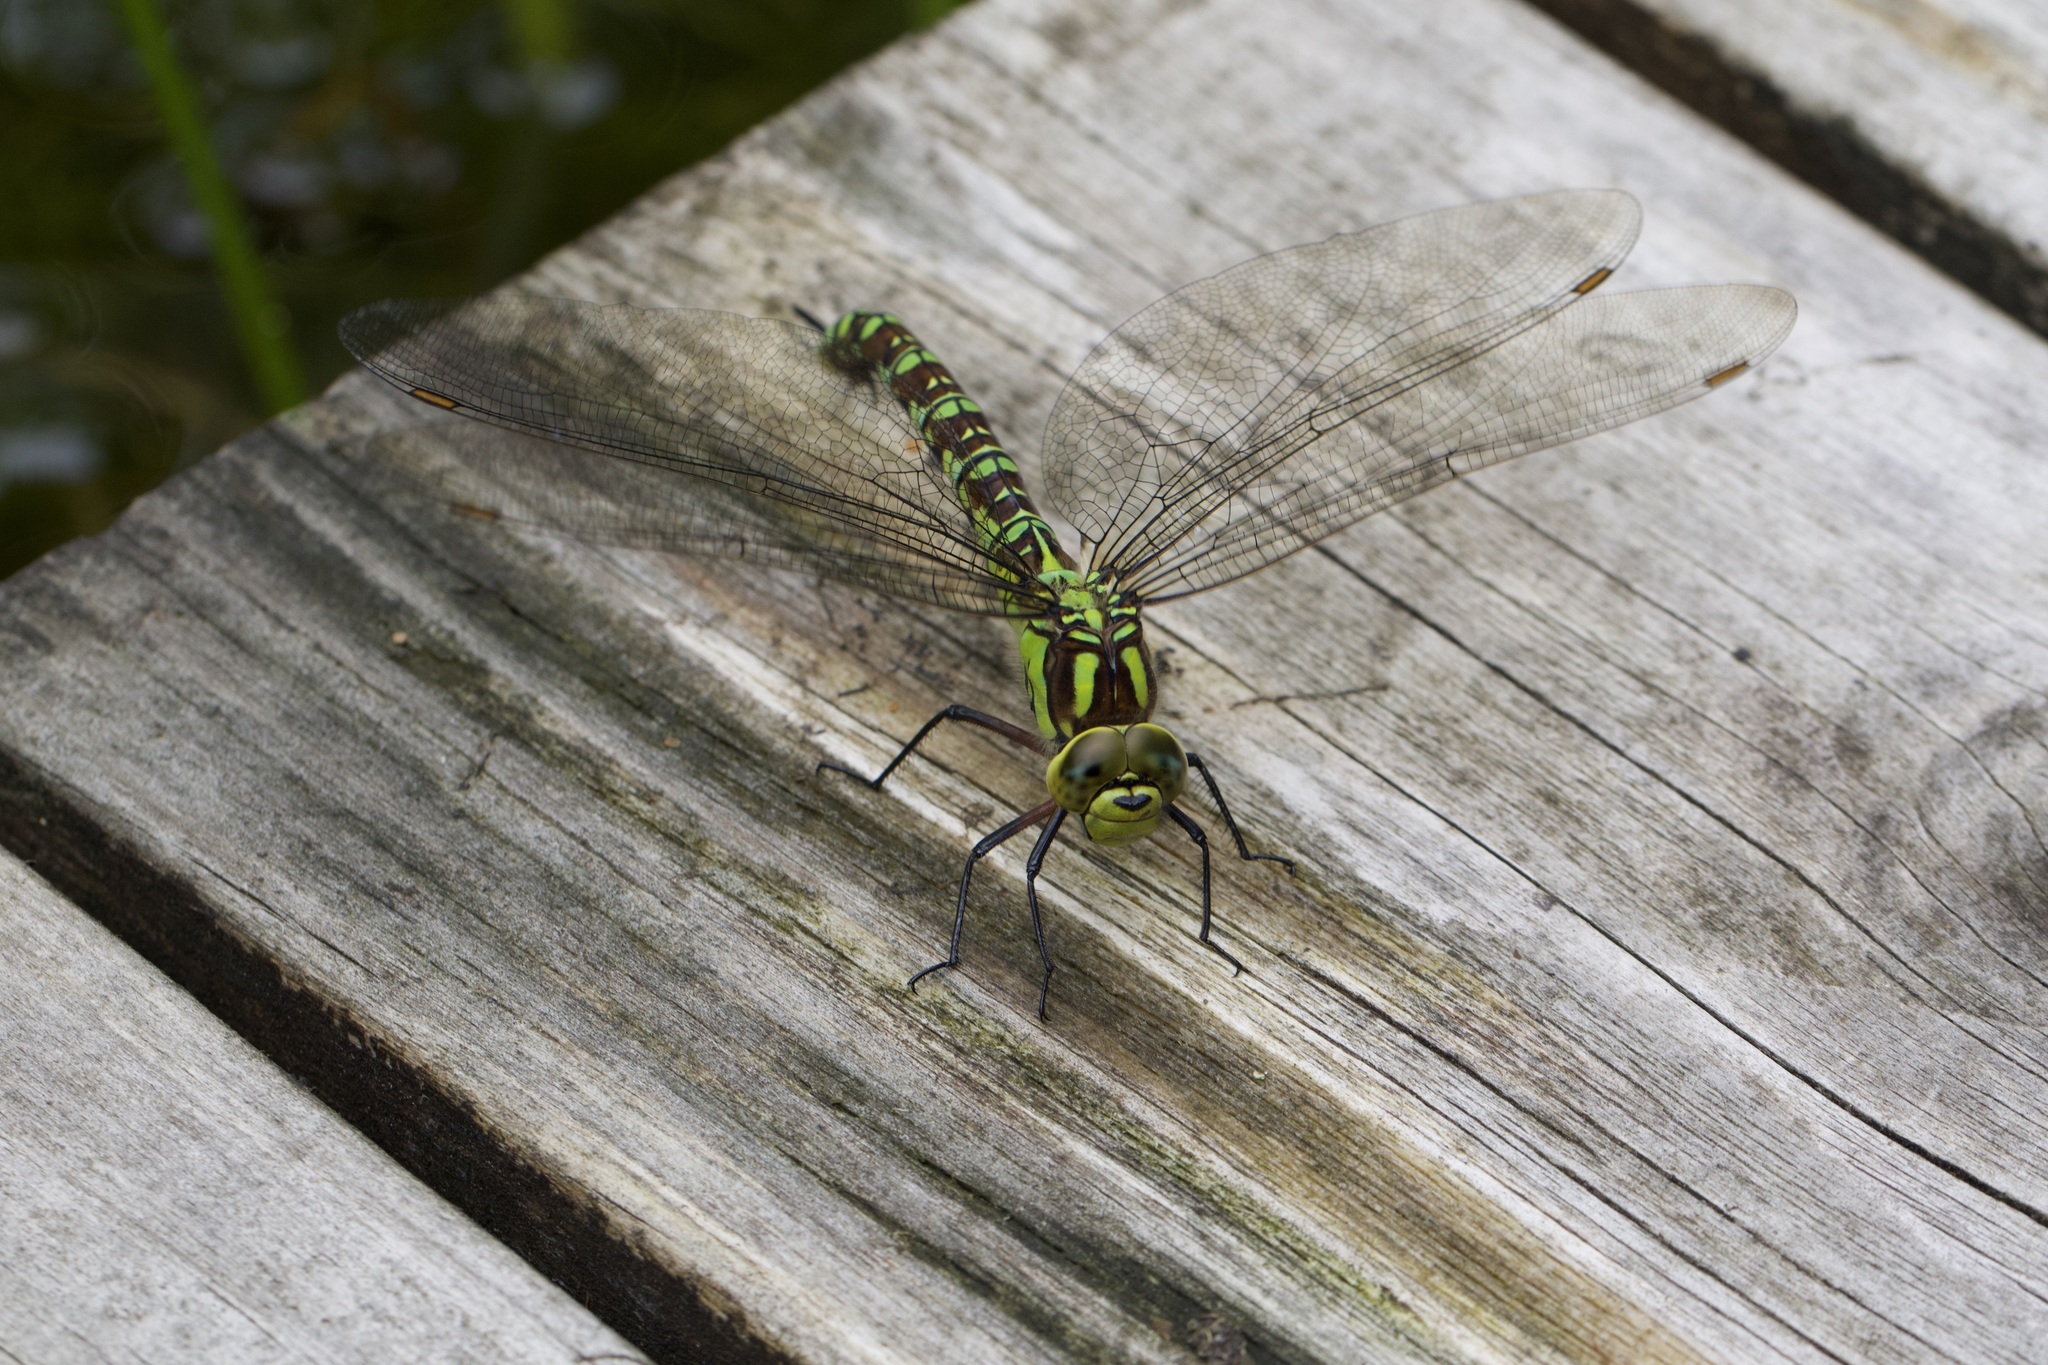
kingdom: Animalia
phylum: Arthropoda
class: Insecta
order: Odonata
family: Aeshnidae
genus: Aeshna
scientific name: Aeshna cyanea
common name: Southern hawker
